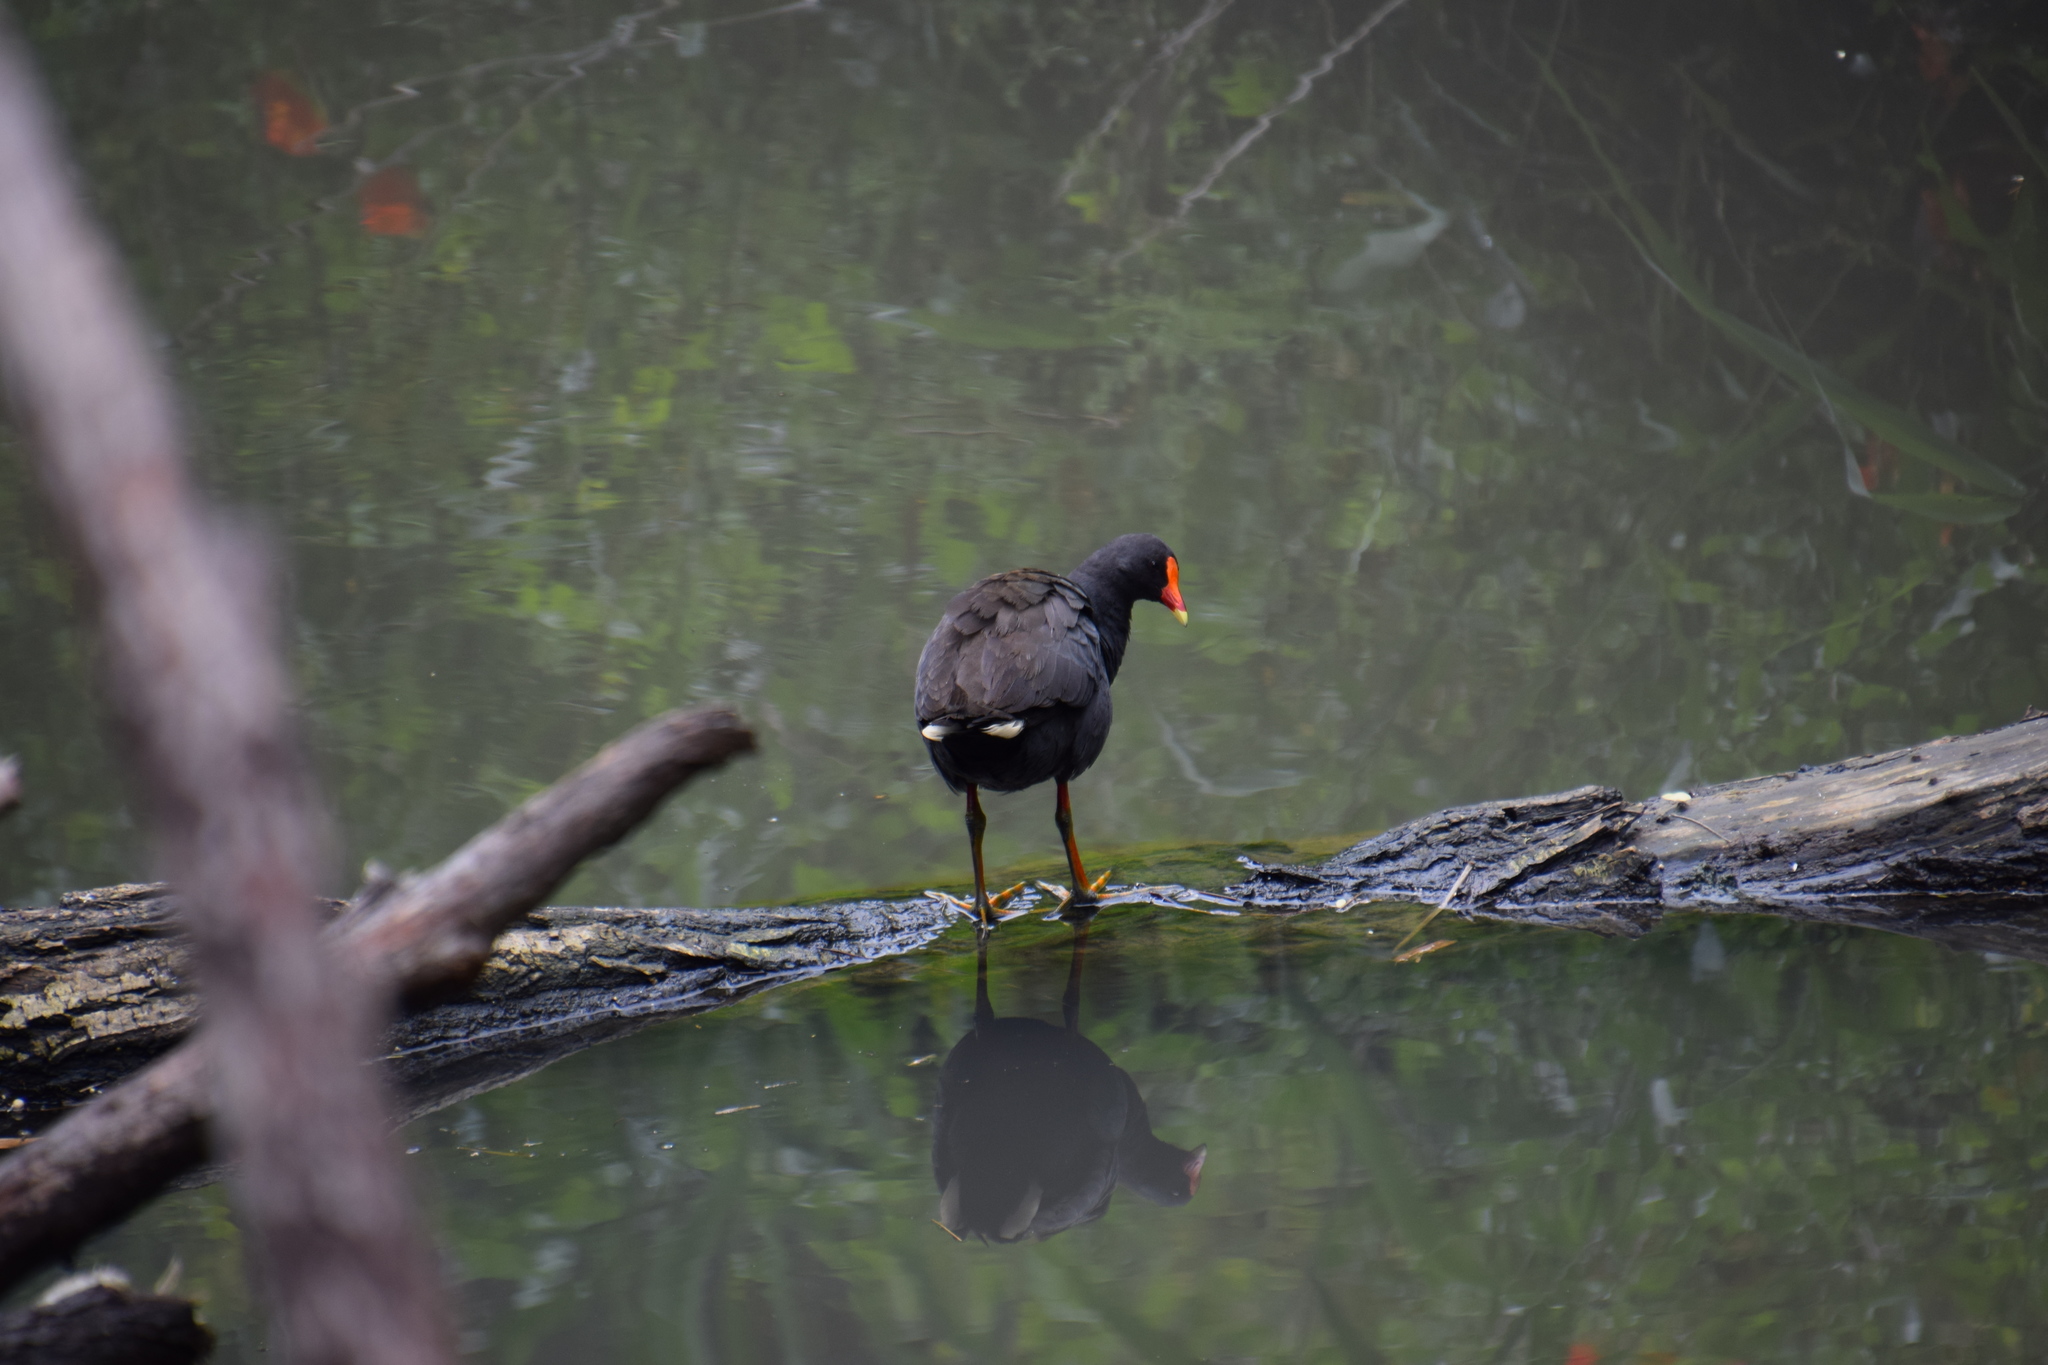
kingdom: Animalia
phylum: Chordata
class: Aves
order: Gruiformes
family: Rallidae
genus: Gallinula
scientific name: Gallinula tenebrosa
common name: Dusky moorhen
